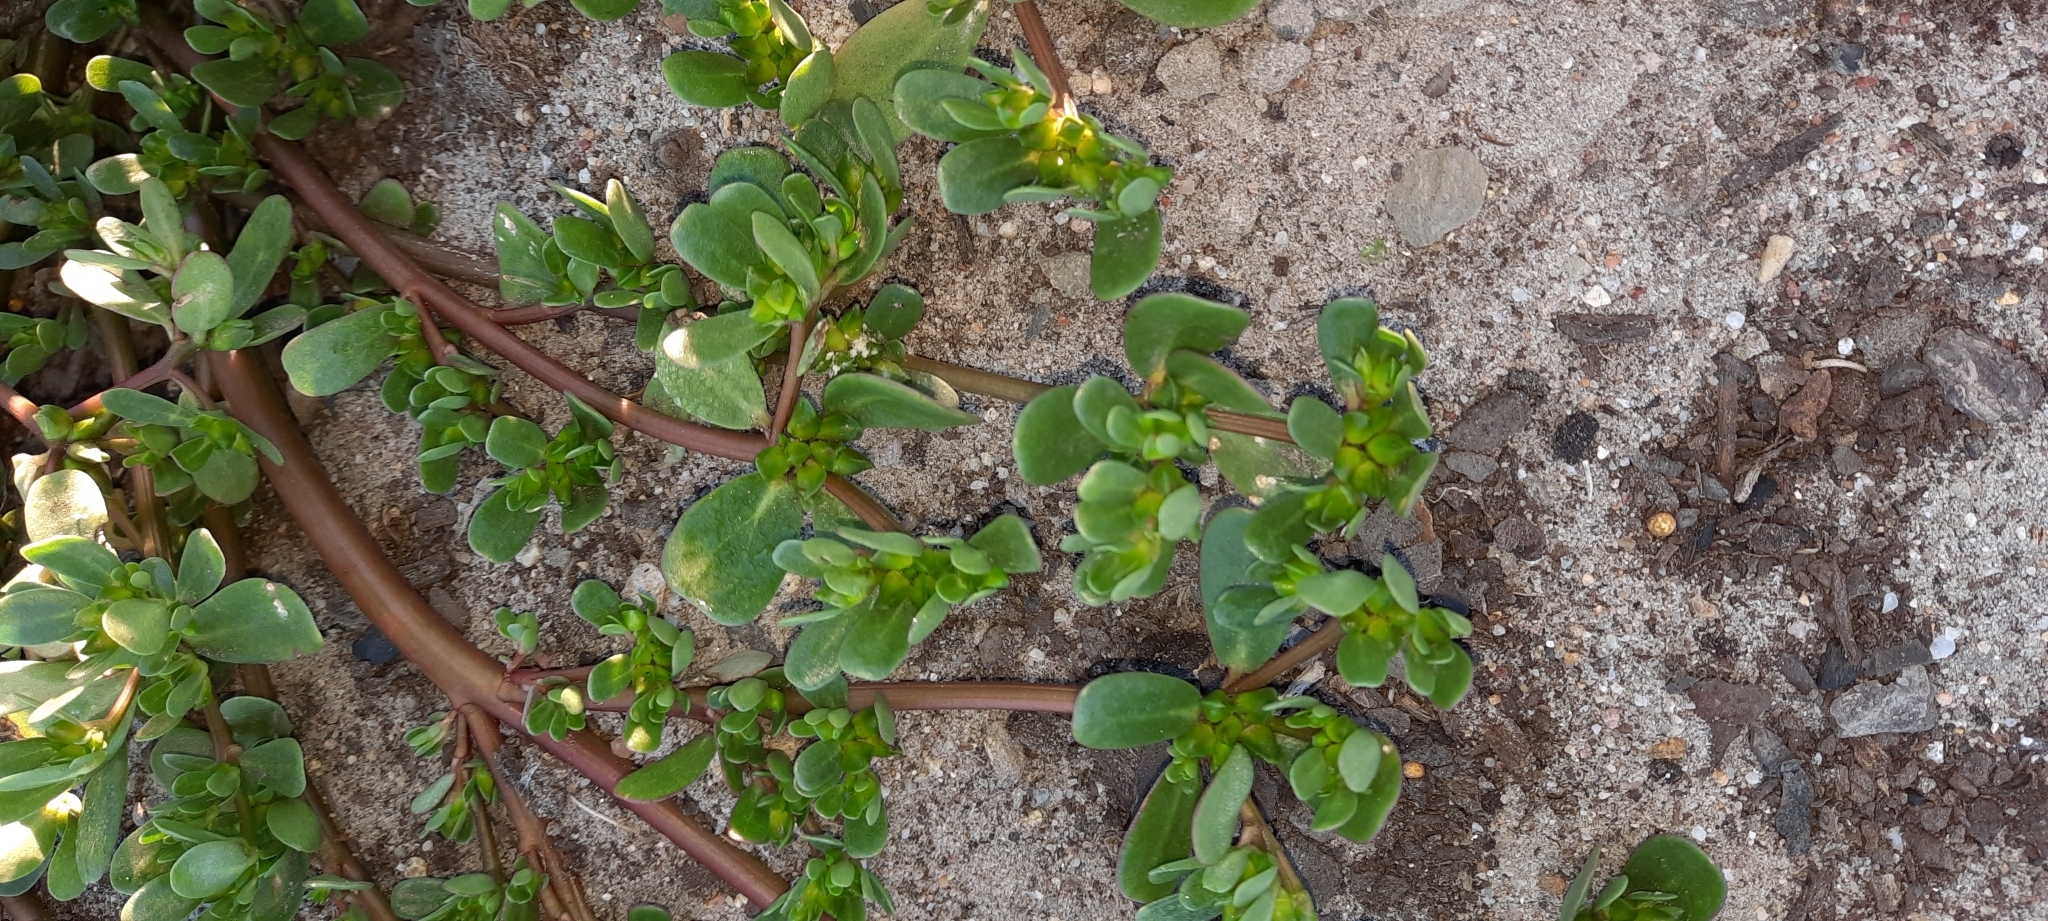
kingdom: Plantae
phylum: Tracheophyta
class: Magnoliopsida
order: Caryophyllales
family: Portulacaceae
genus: Portulaca
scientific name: Portulaca oleracea
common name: Common purslane
